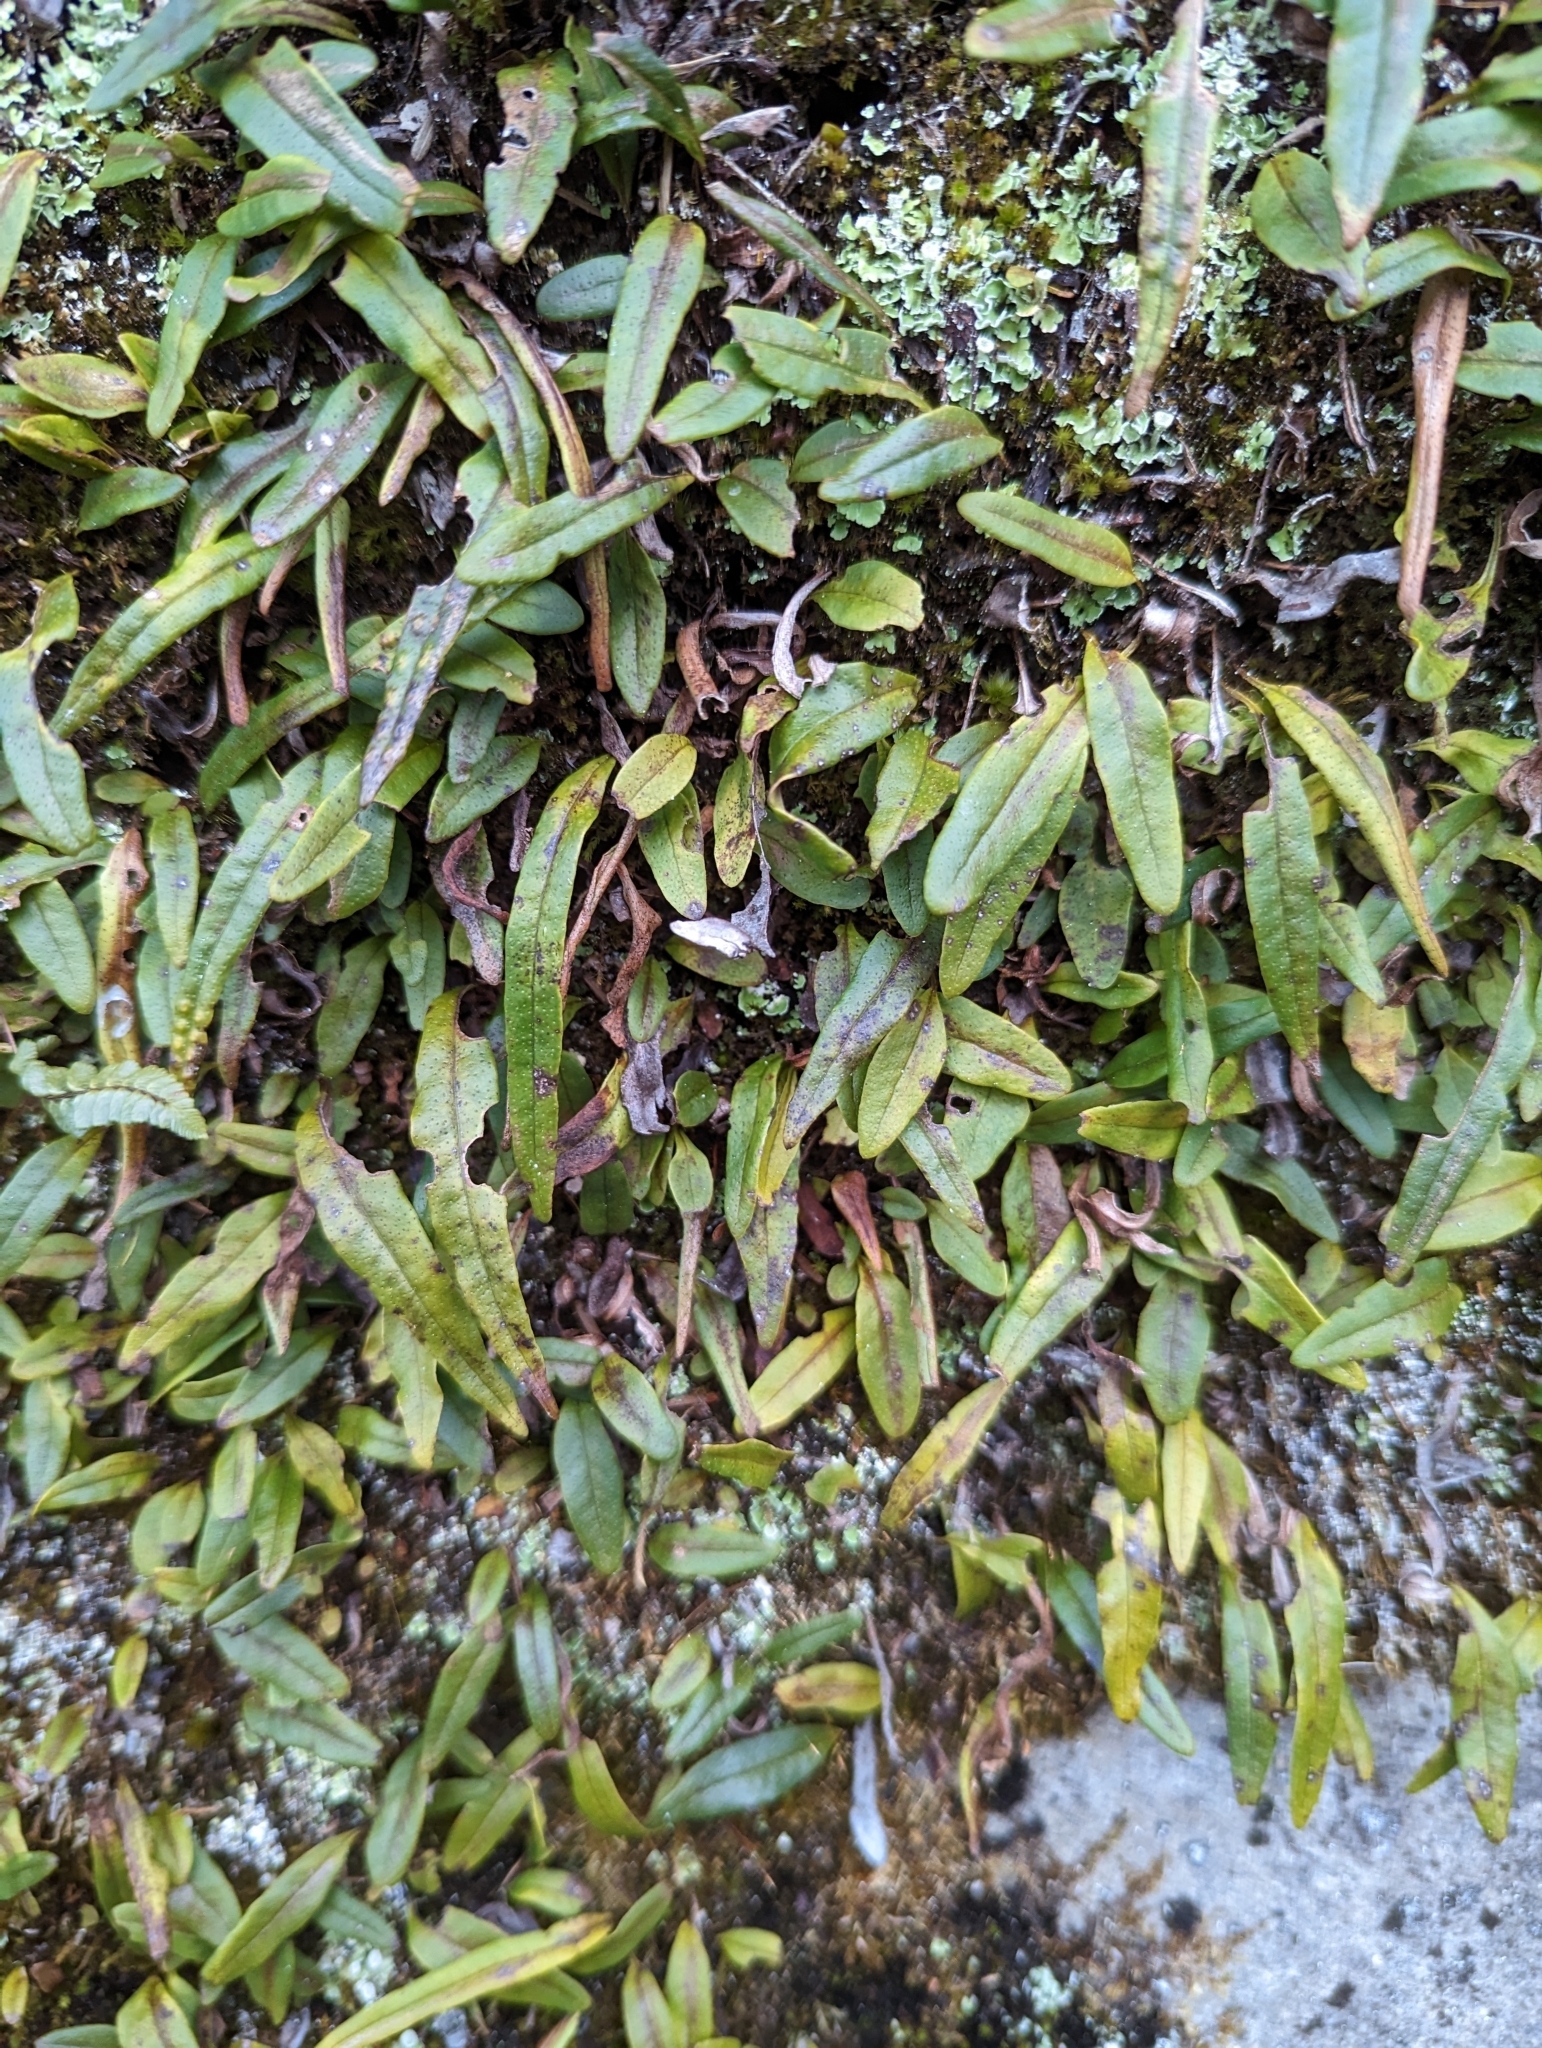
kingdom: Plantae
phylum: Tracheophyta
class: Polypodiopsida
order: Polypodiales
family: Polypodiaceae
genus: Pyrrosia
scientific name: Pyrrosia linearifolia
